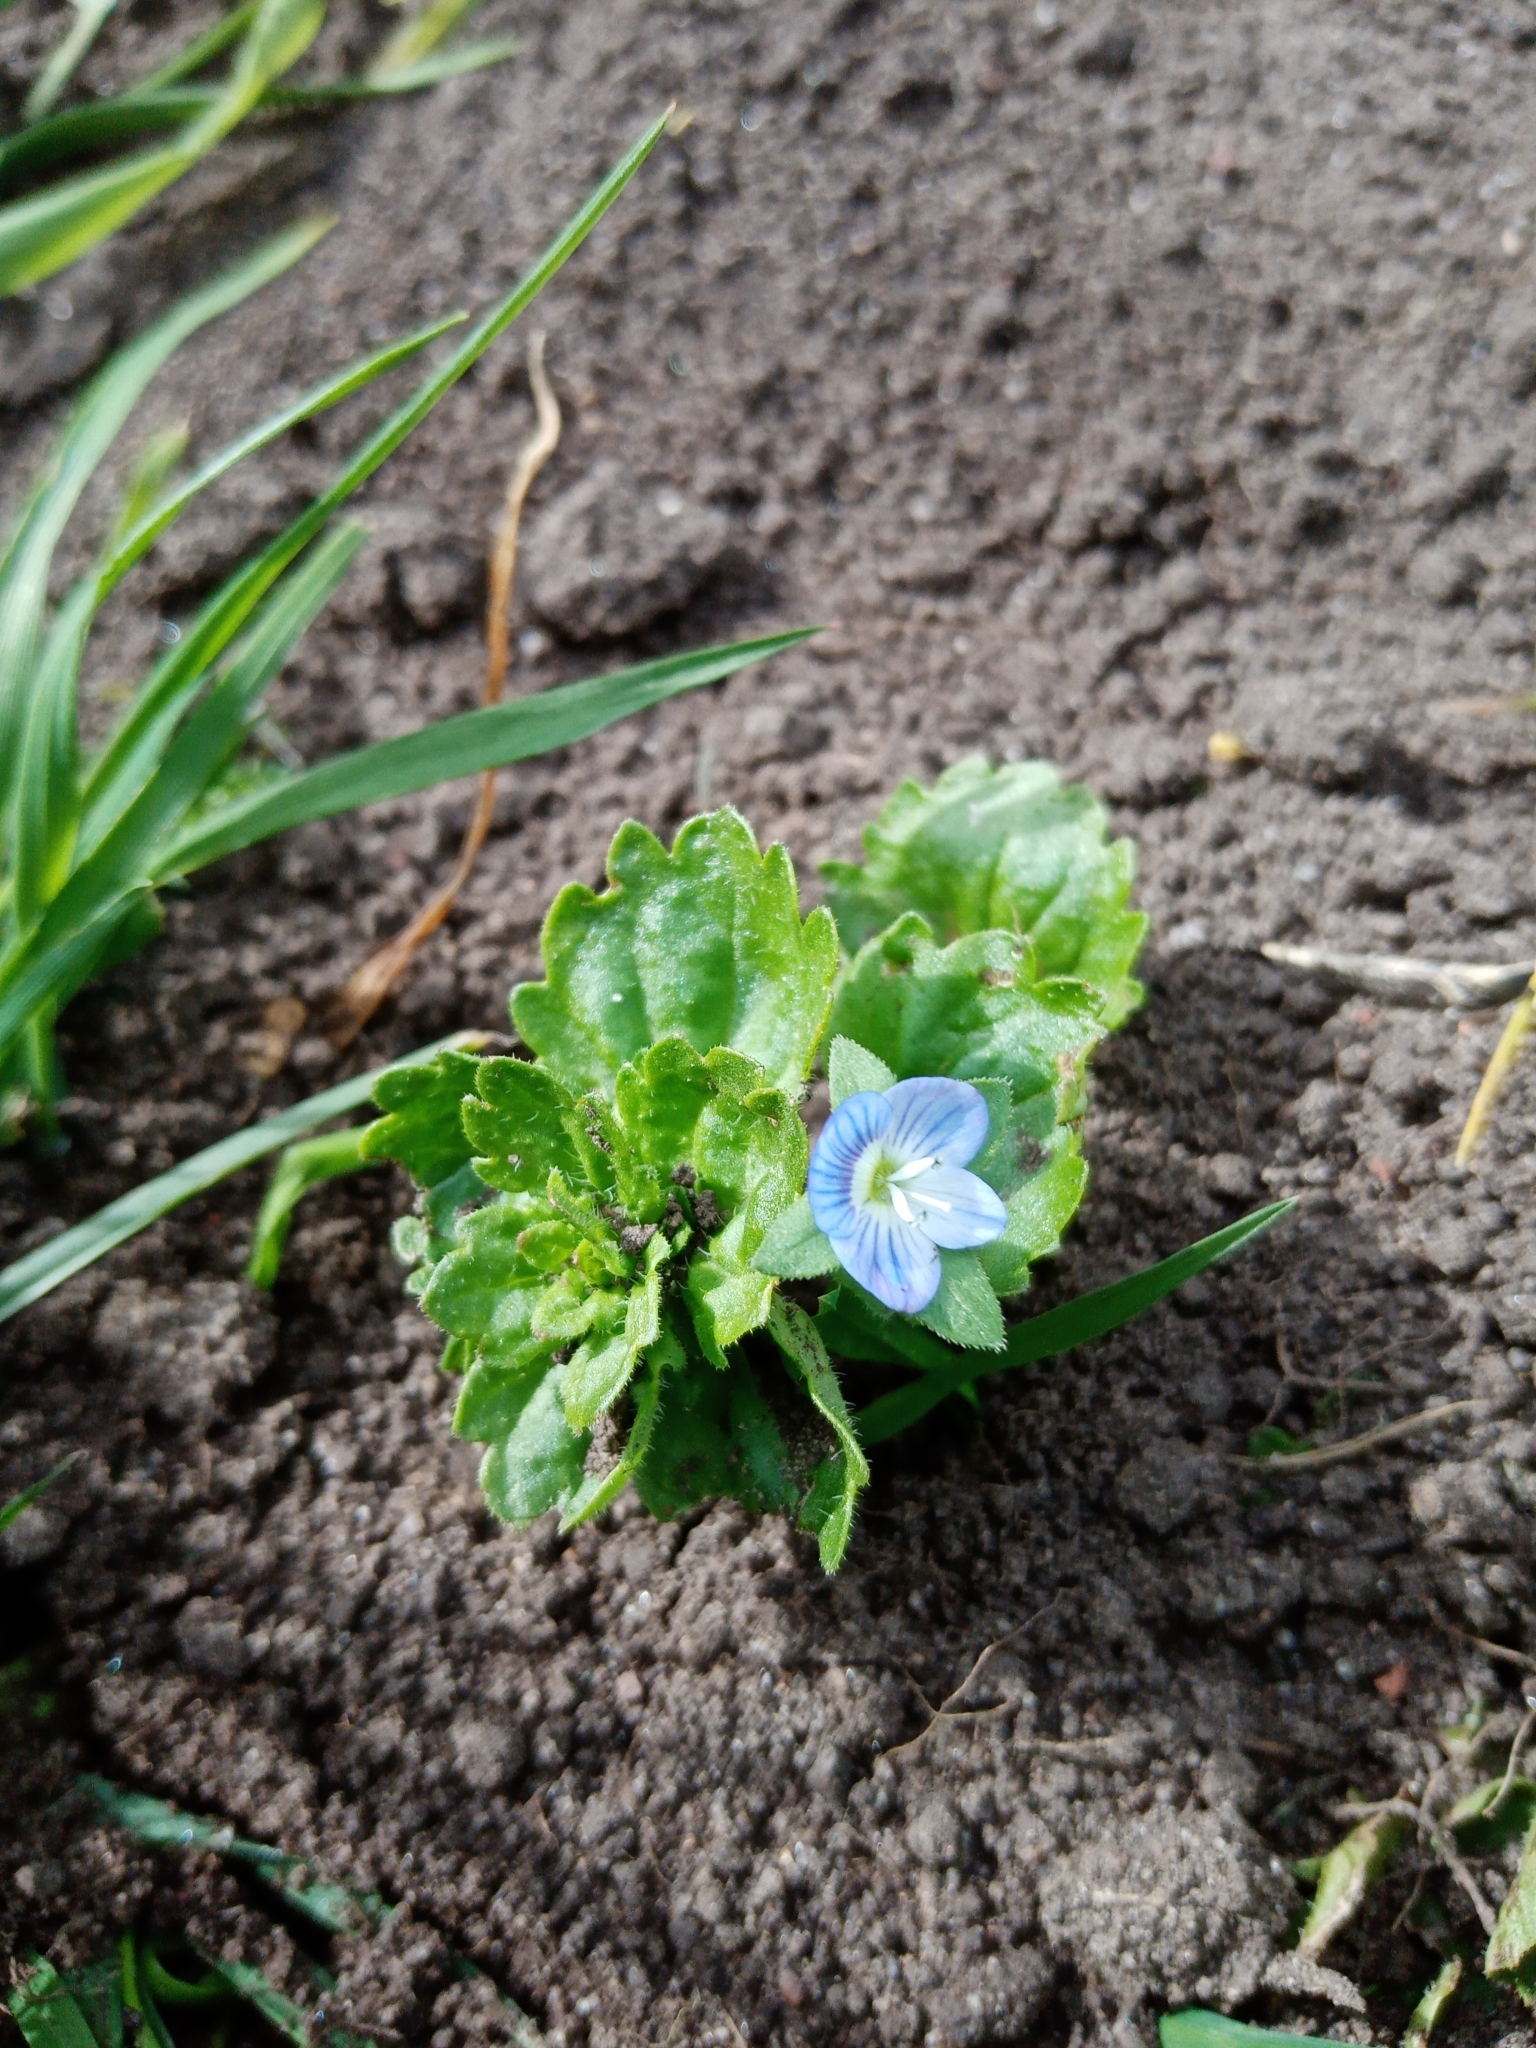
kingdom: Plantae
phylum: Tracheophyta
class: Magnoliopsida
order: Lamiales
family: Plantaginaceae
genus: Veronica
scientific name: Veronica persica
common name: Common field-speedwell
